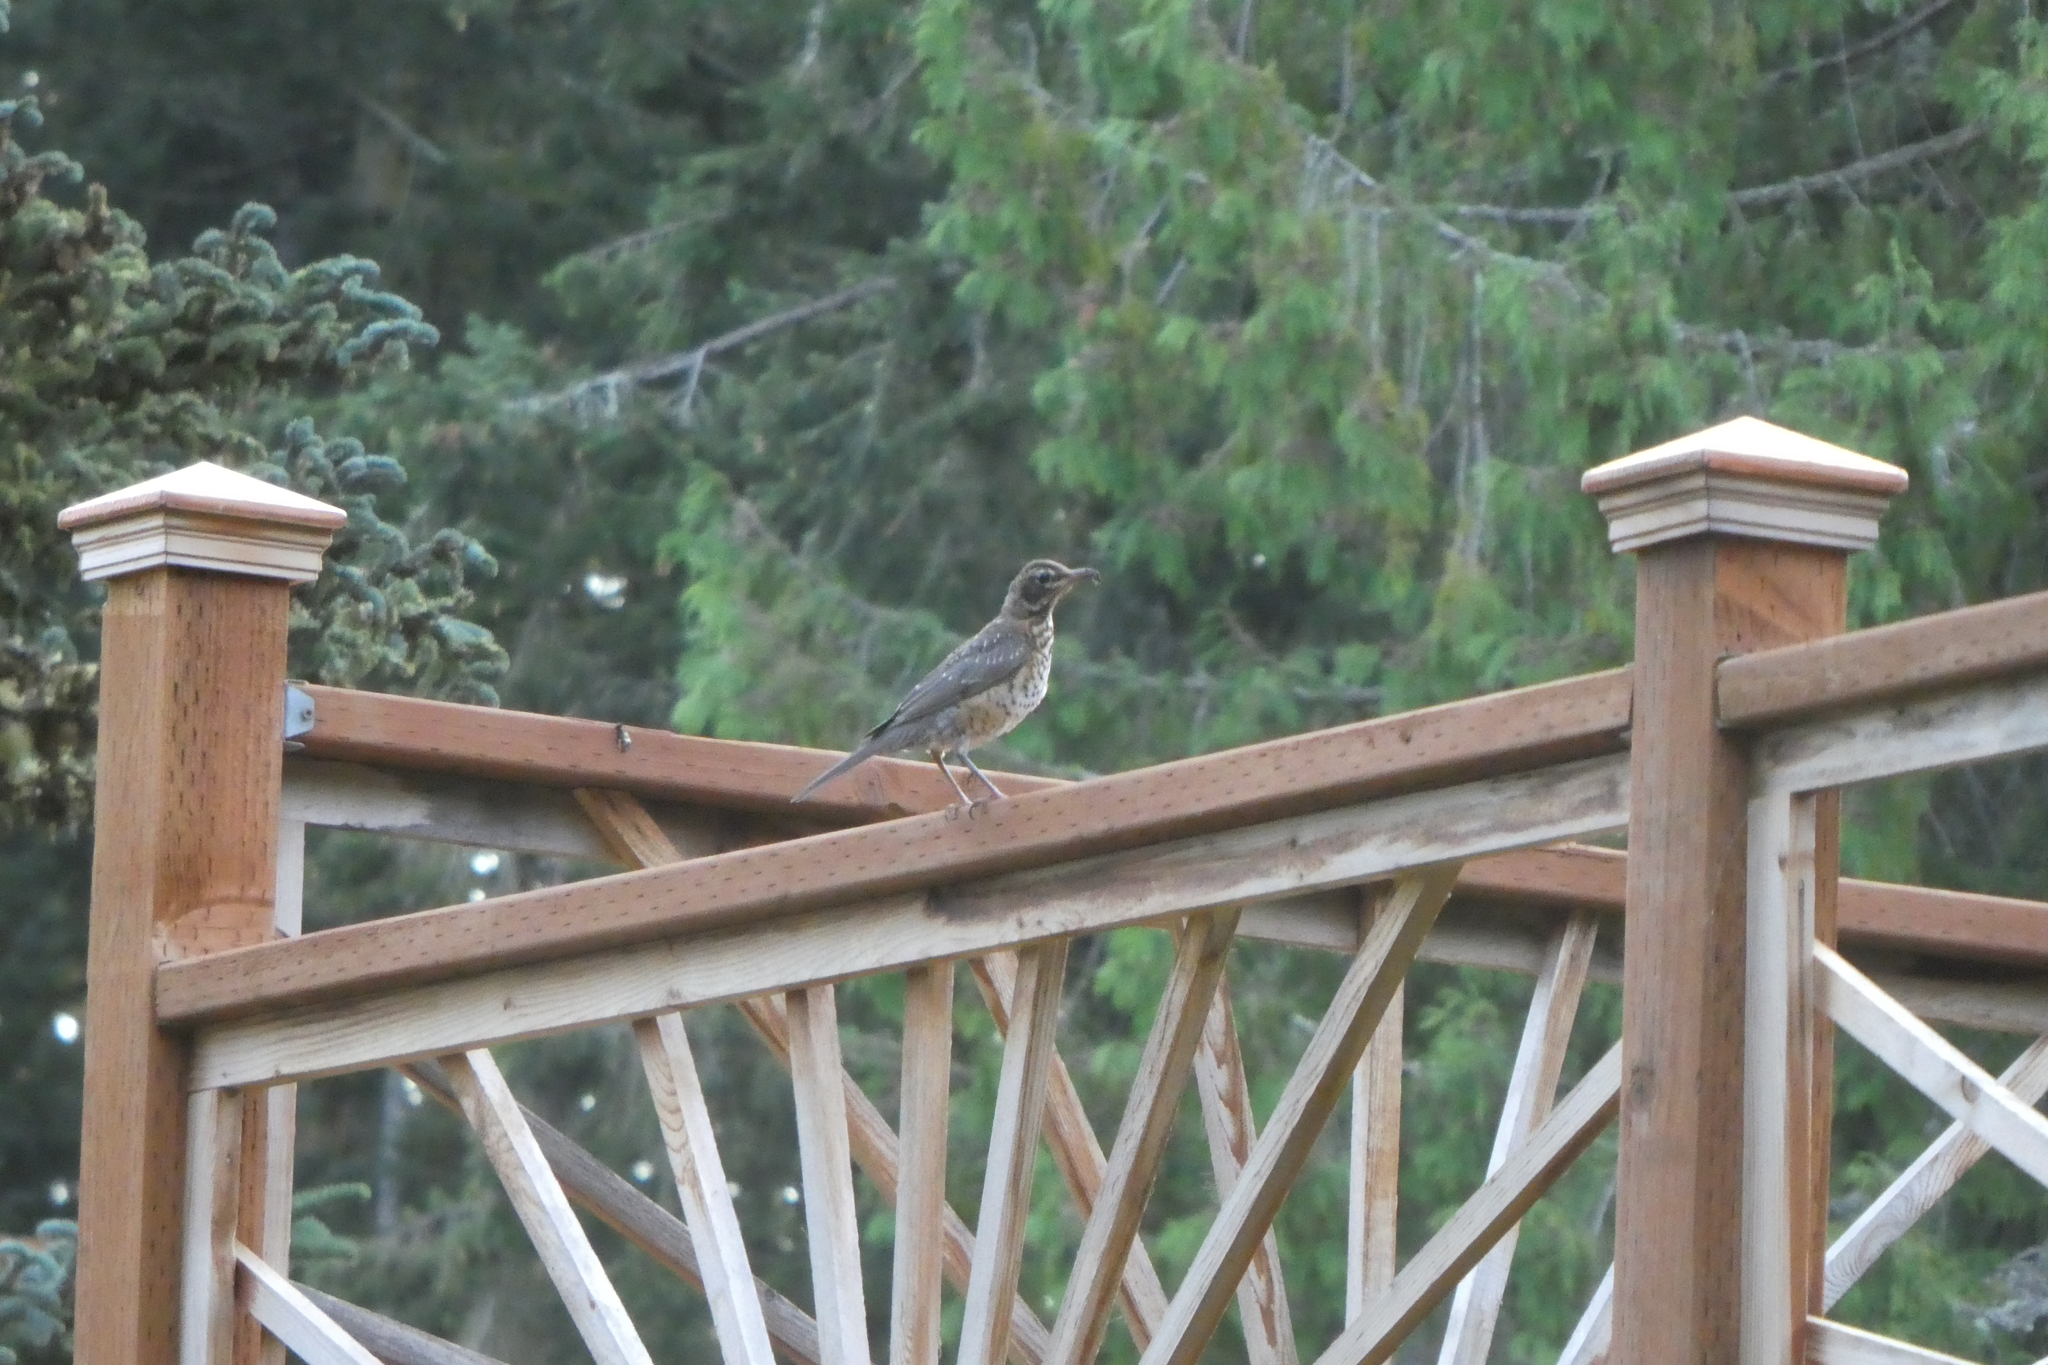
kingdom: Animalia
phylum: Chordata
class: Aves
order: Passeriformes
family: Turdidae
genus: Turdus
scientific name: Turdus migratorius
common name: American robin
